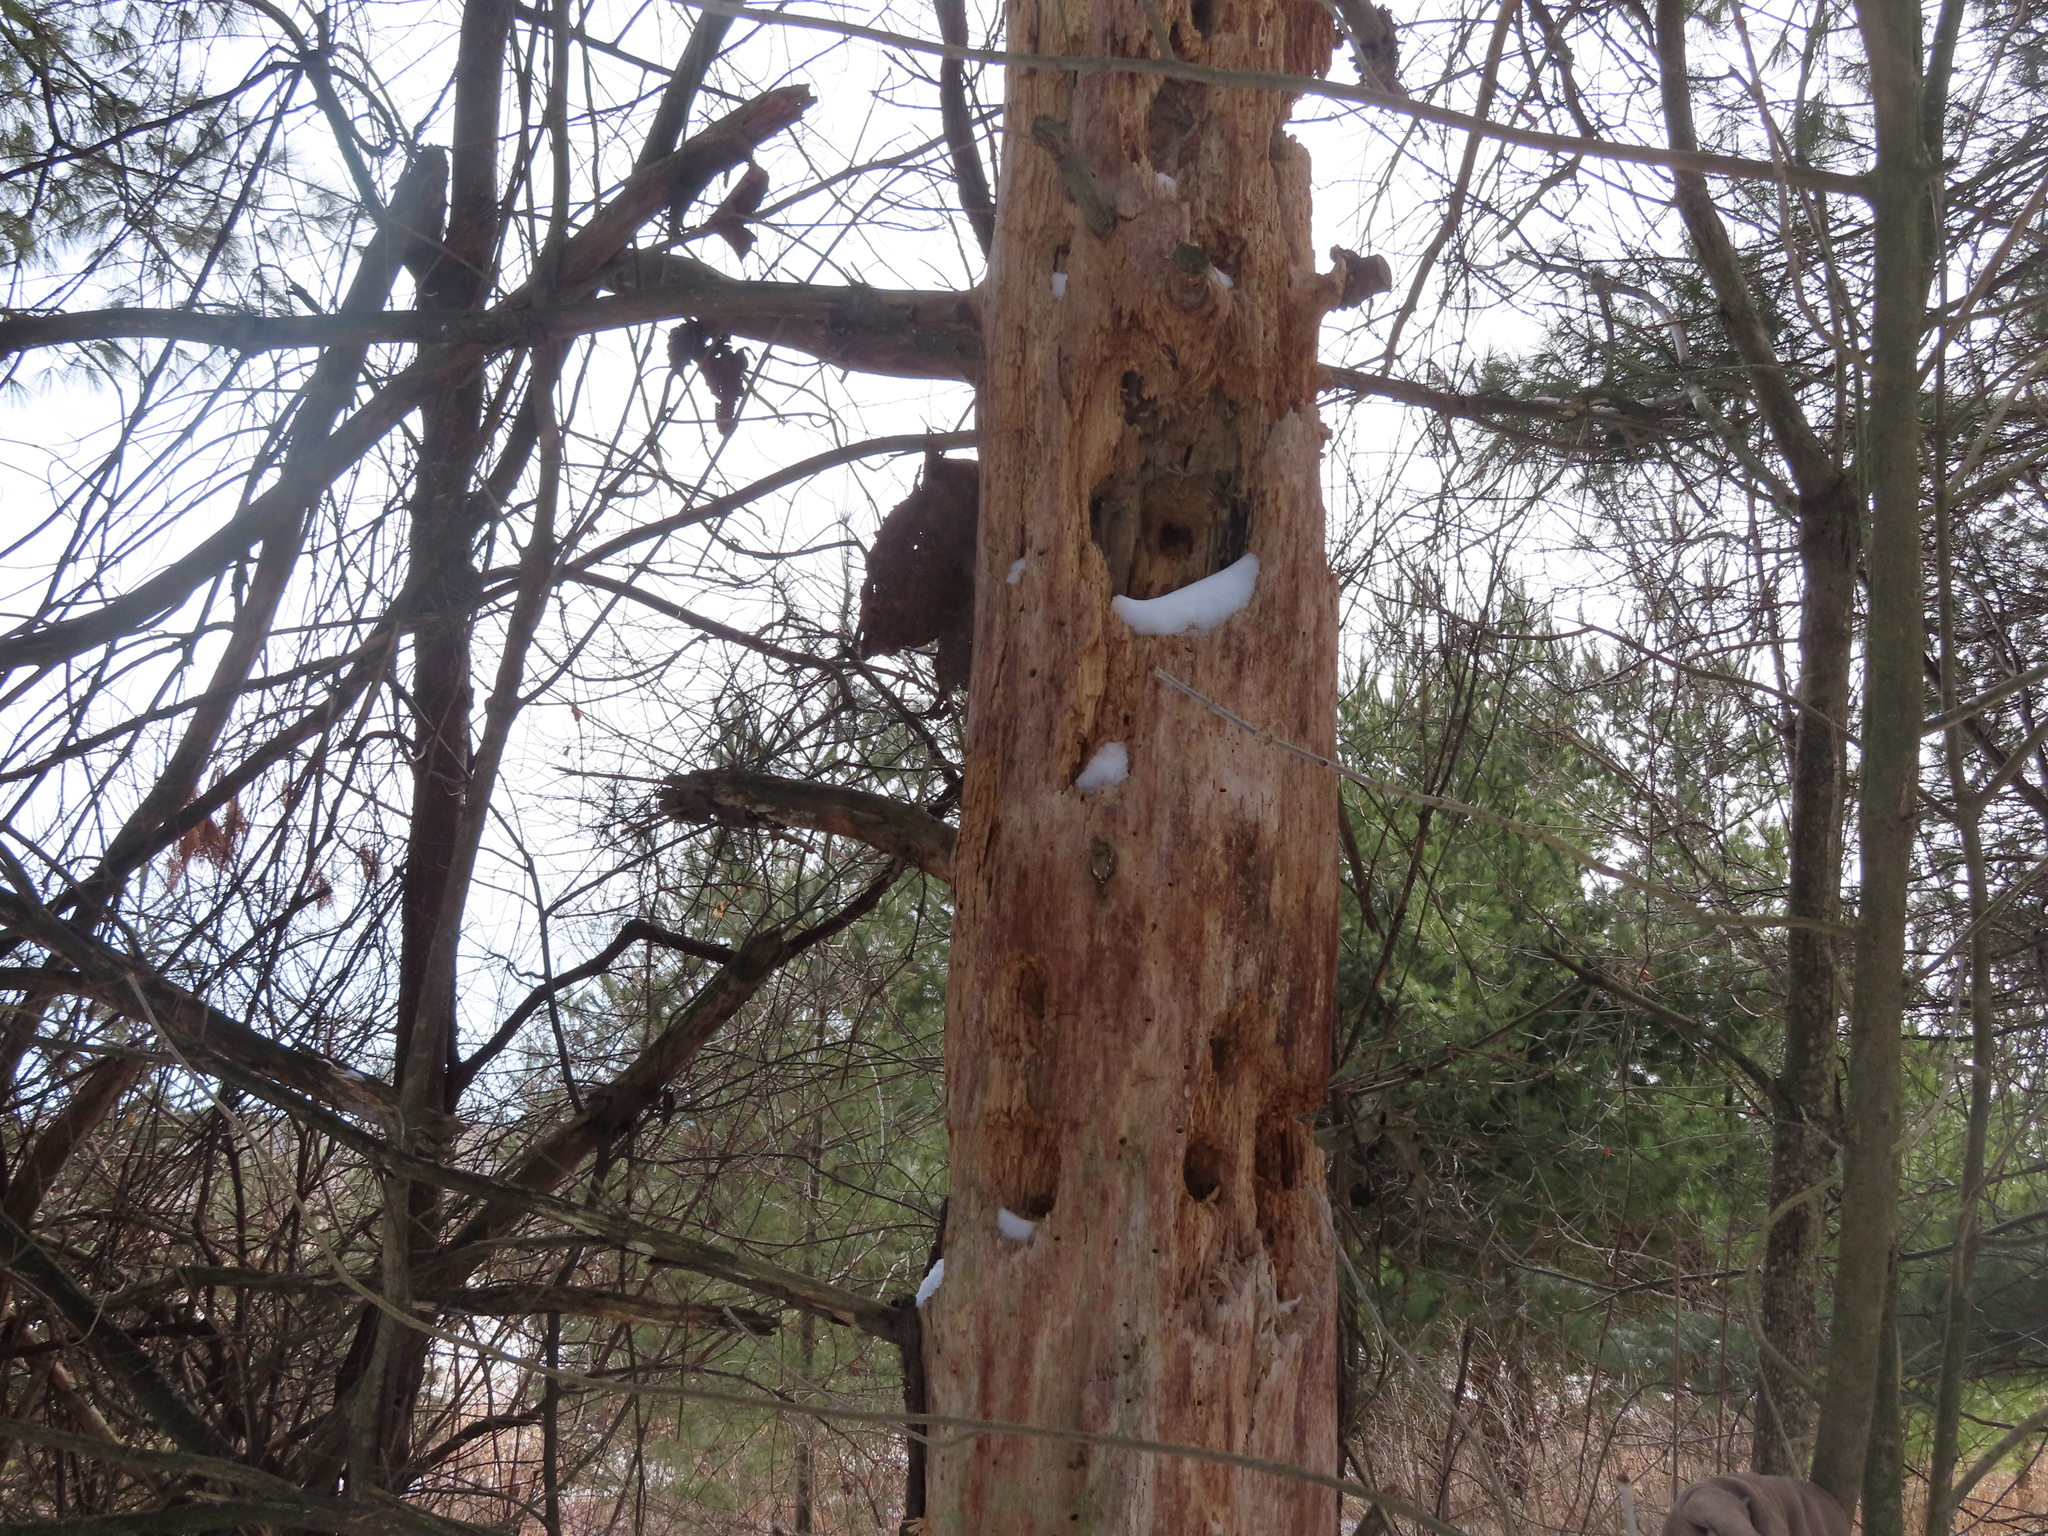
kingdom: Animalia
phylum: Chordata
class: Aves
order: Piciformes
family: Picidae
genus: Dryocopus
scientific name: Dryocopus pileatus
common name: Pileated woodpecker
